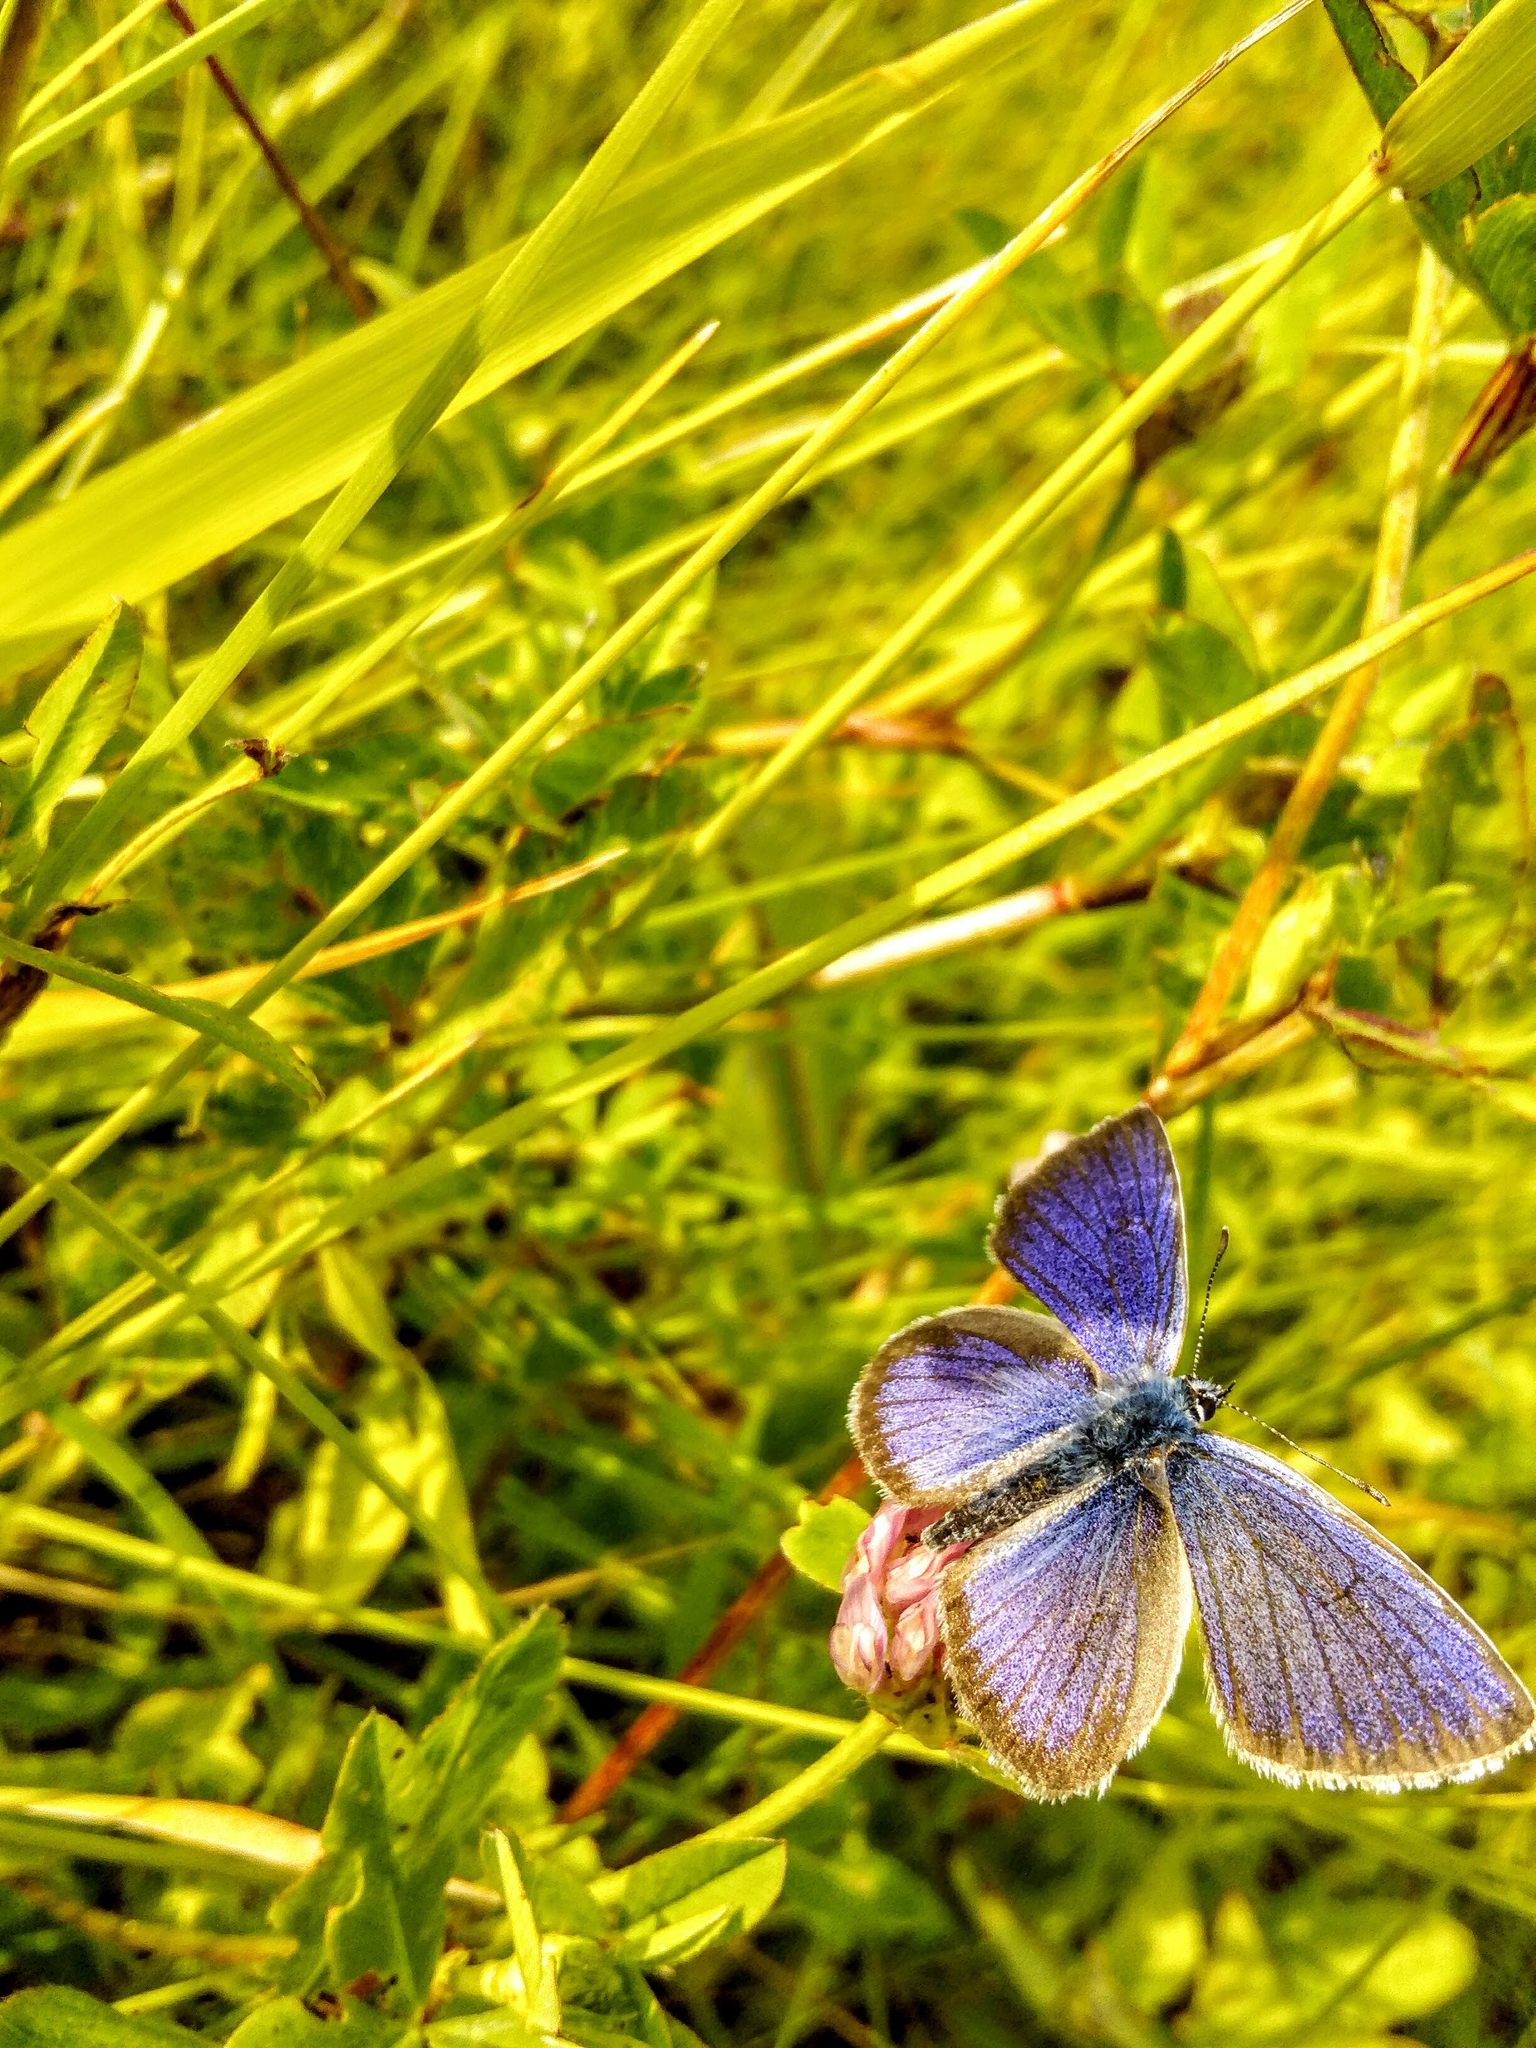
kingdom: Animalia
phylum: Arthropoda
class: Insecta
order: Lepidoptera
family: Lycaenidae
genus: Cyaniris
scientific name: Cyaniris semiargus
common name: Mazarine blue
